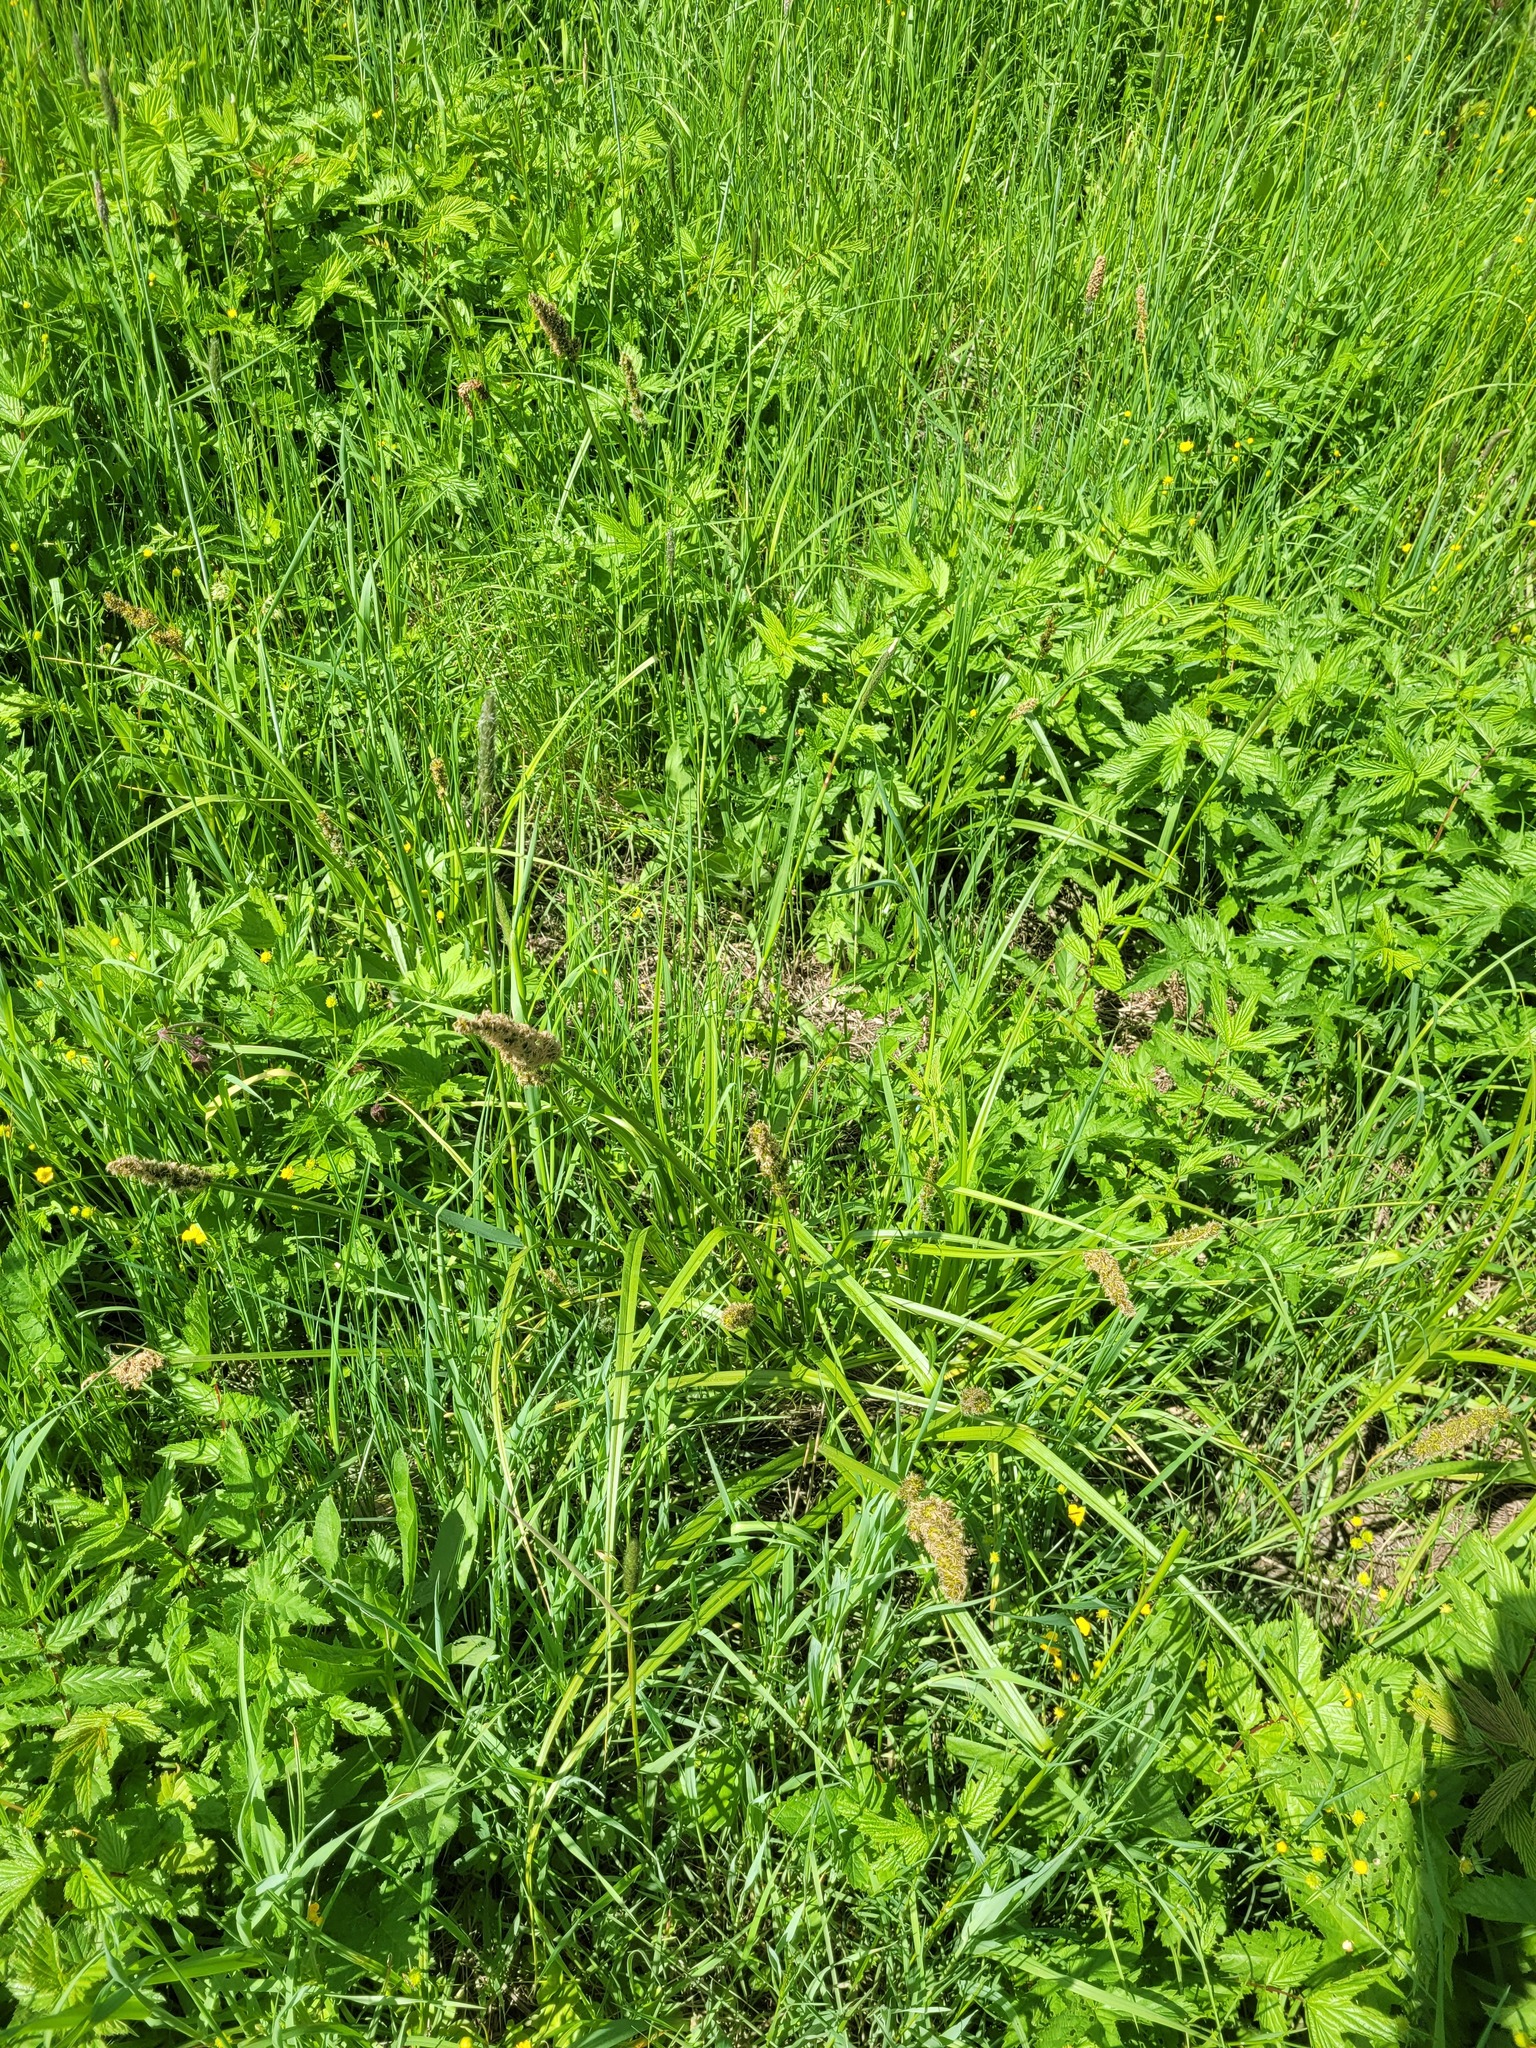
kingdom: Plantae
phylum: Tracheophyta
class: Liliopsida
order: Poales
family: Cyperaceae
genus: Carex
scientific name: Carex vulpina
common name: True fox-sedge
